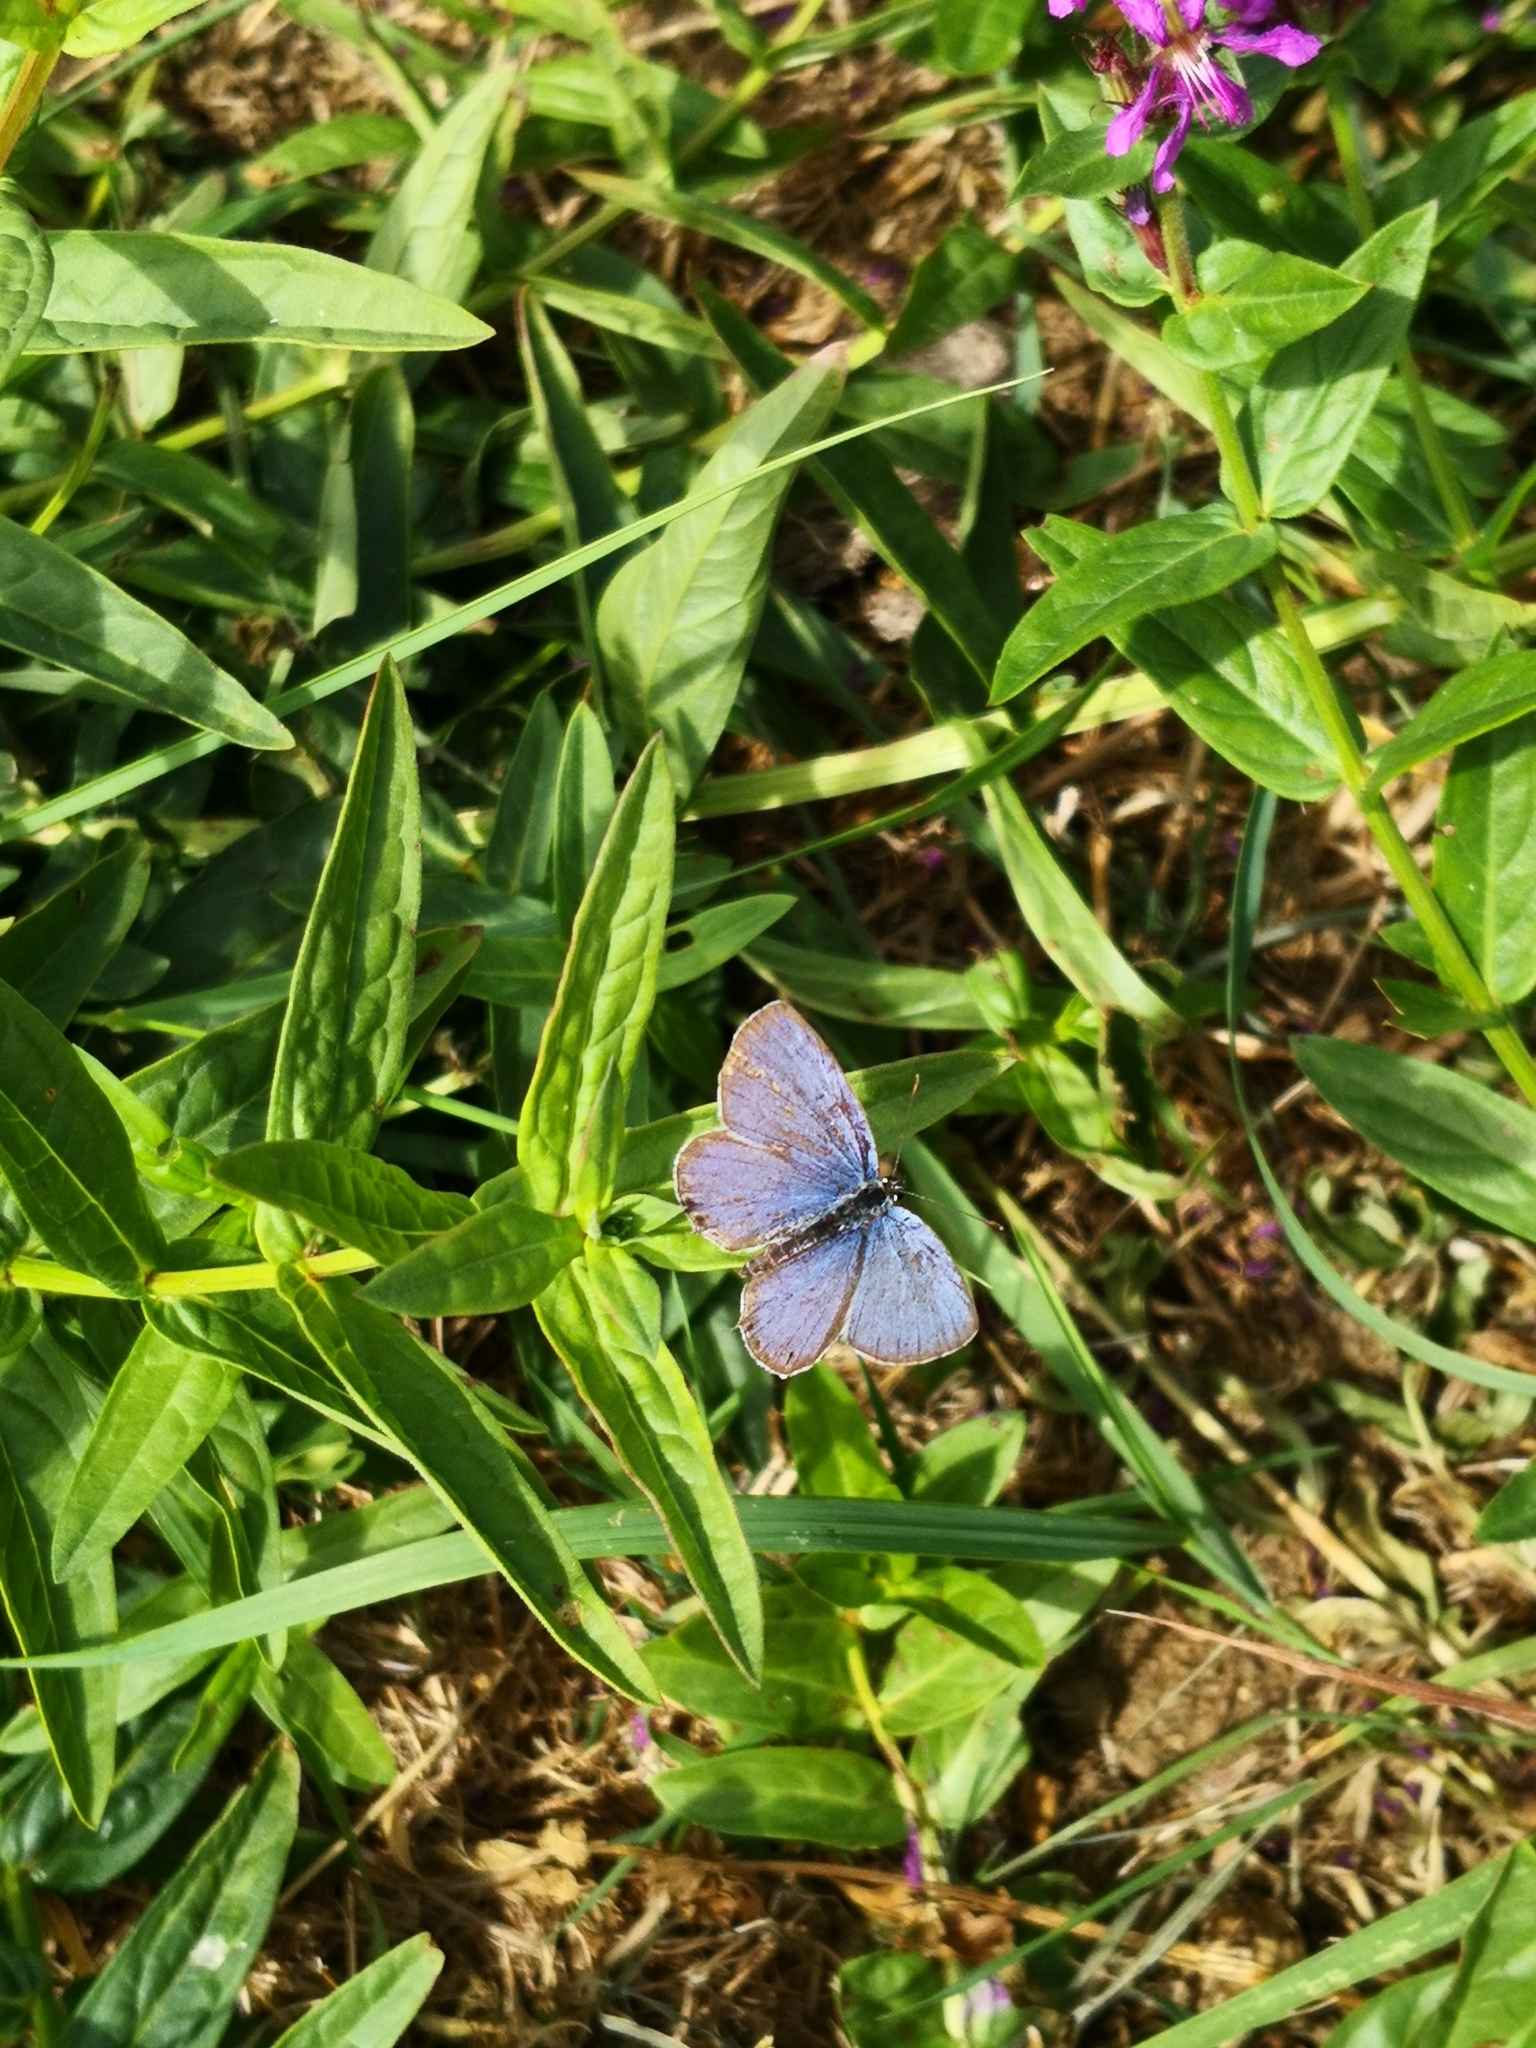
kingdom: Animalia
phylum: Arthropoda
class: Insecta
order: Lepidoptera
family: Lycaenidae
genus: Elkalyce
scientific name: Elkalyce argiades
